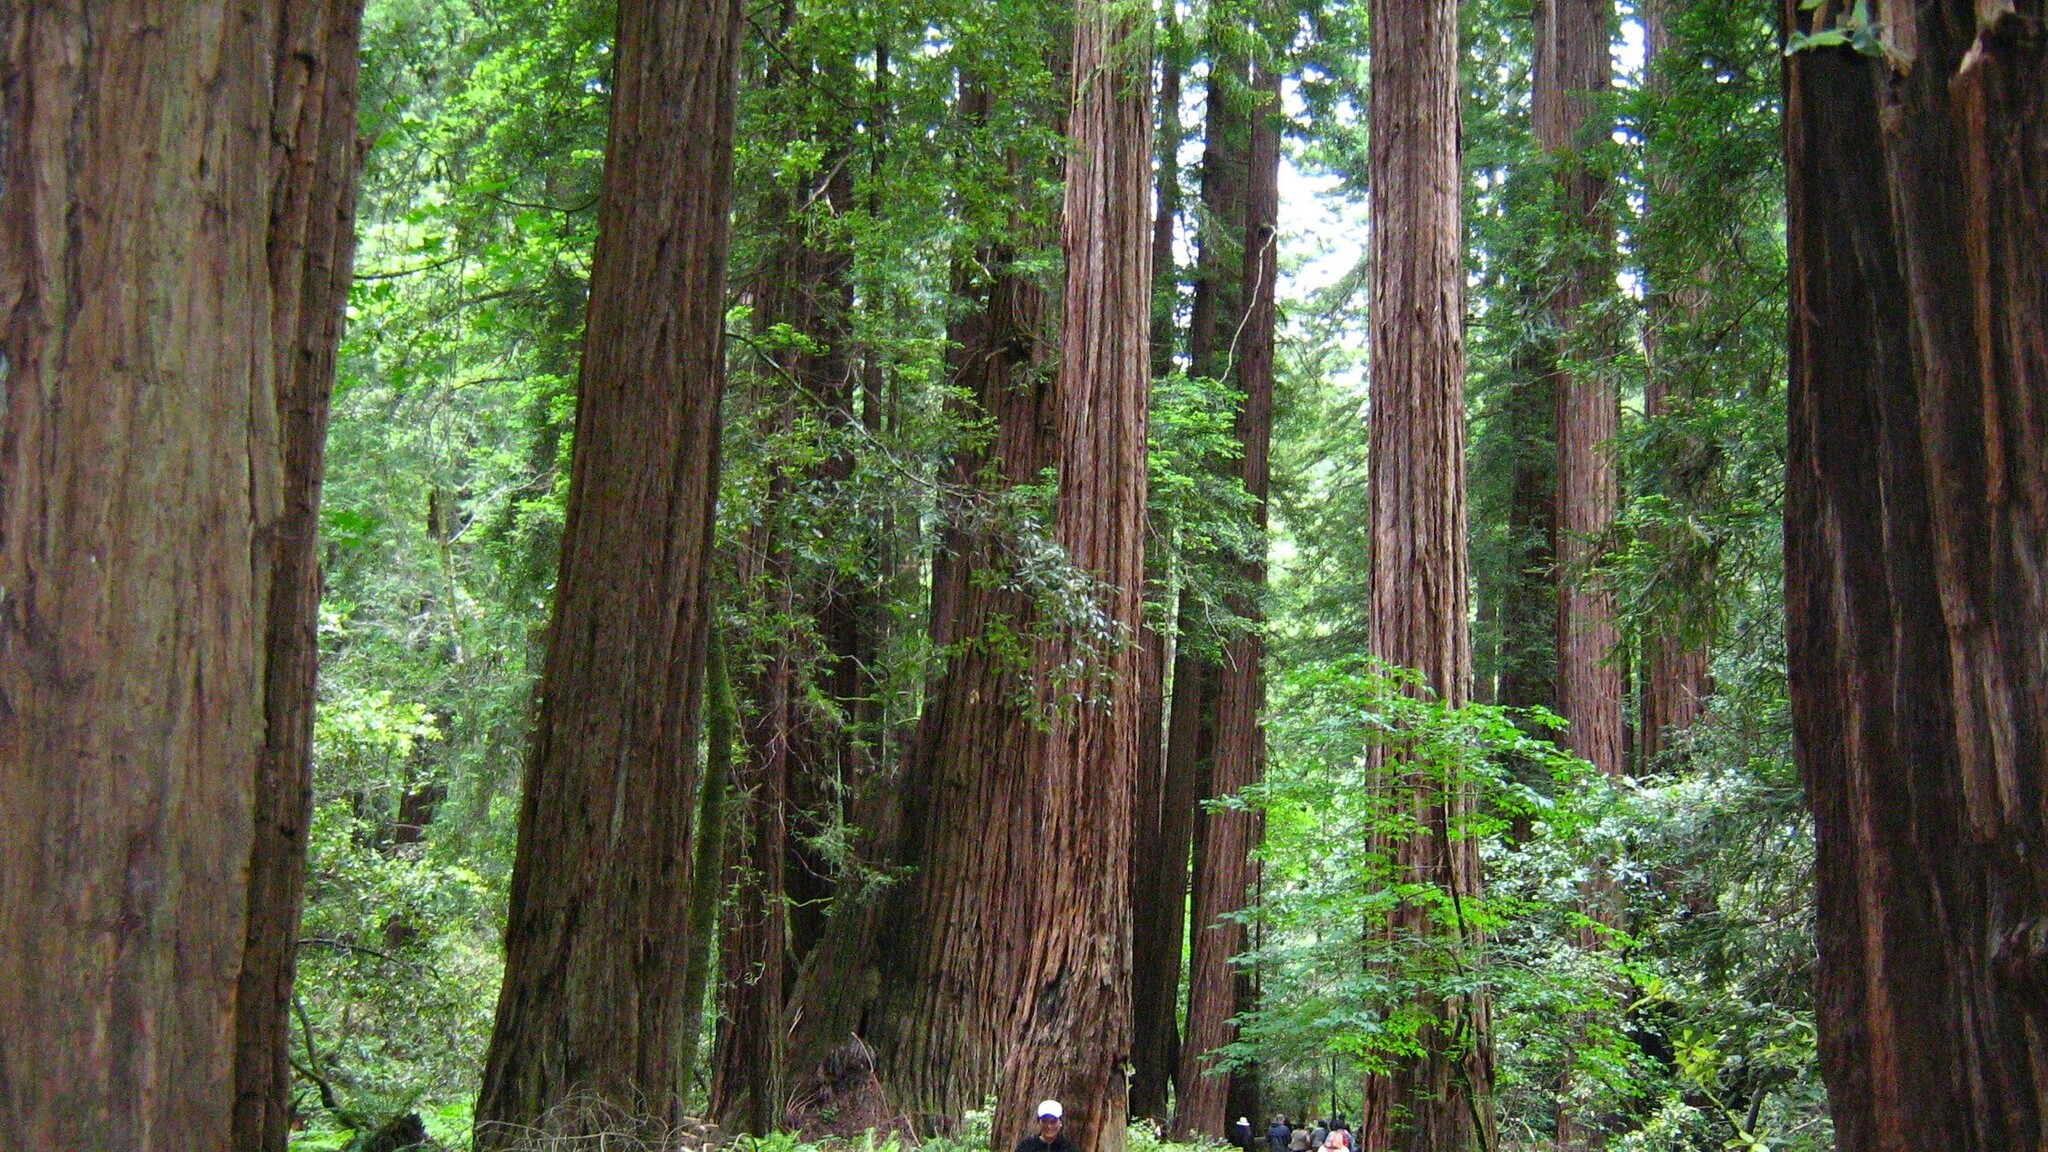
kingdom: Plantae
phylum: Tracheophyta
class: Pinopsida
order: Pinales
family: Cupressaceae
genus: Sequoia
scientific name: Sequoia sempervirens
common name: Coast redwood
